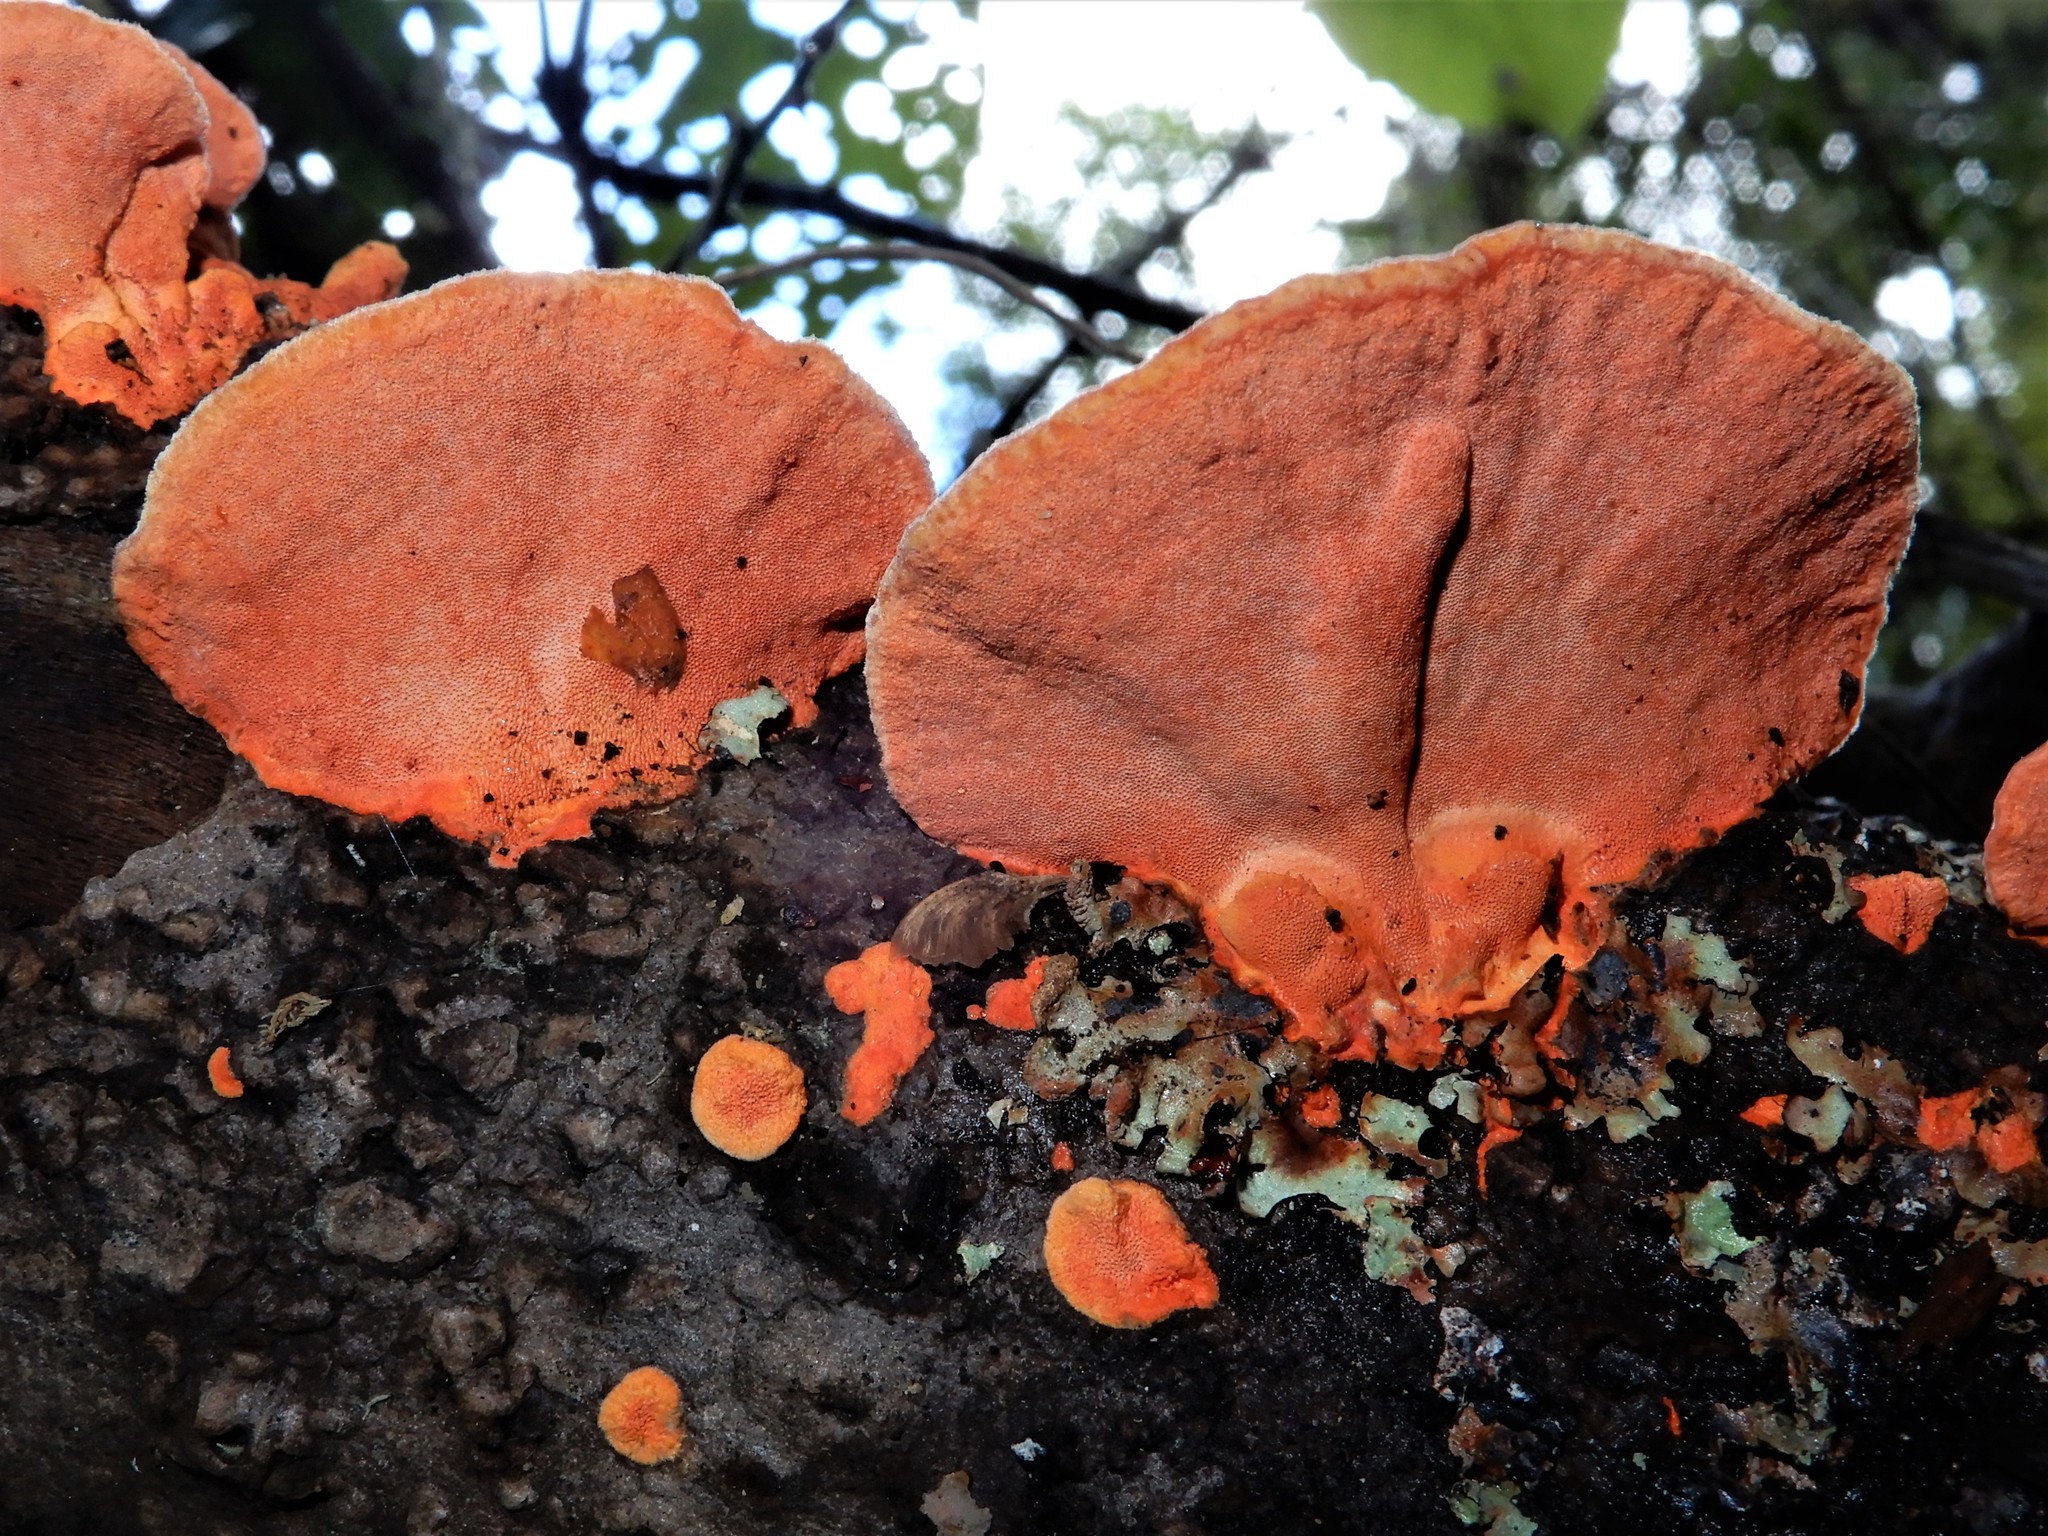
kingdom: Fungi
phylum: Basidiomycota
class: Agaricomycetes
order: Polyporales
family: Polyporaceae
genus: Trametes
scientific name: Trametes coccinea
